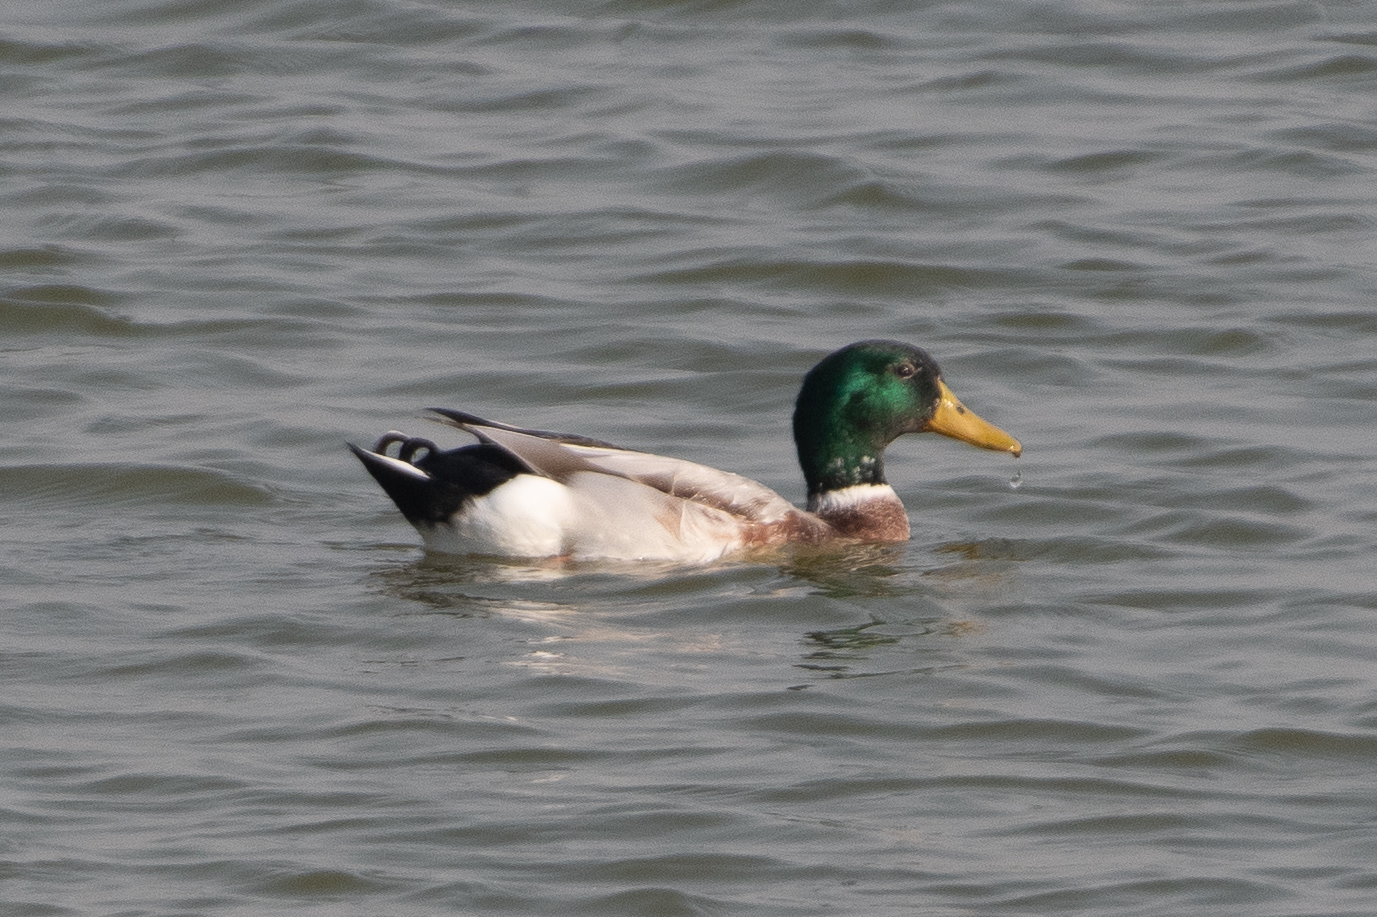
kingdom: Animalia
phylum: Chordata
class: Aves
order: Anseriformes
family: Anatidae
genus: Anas
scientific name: Anas platyrhynchos
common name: Mallard
